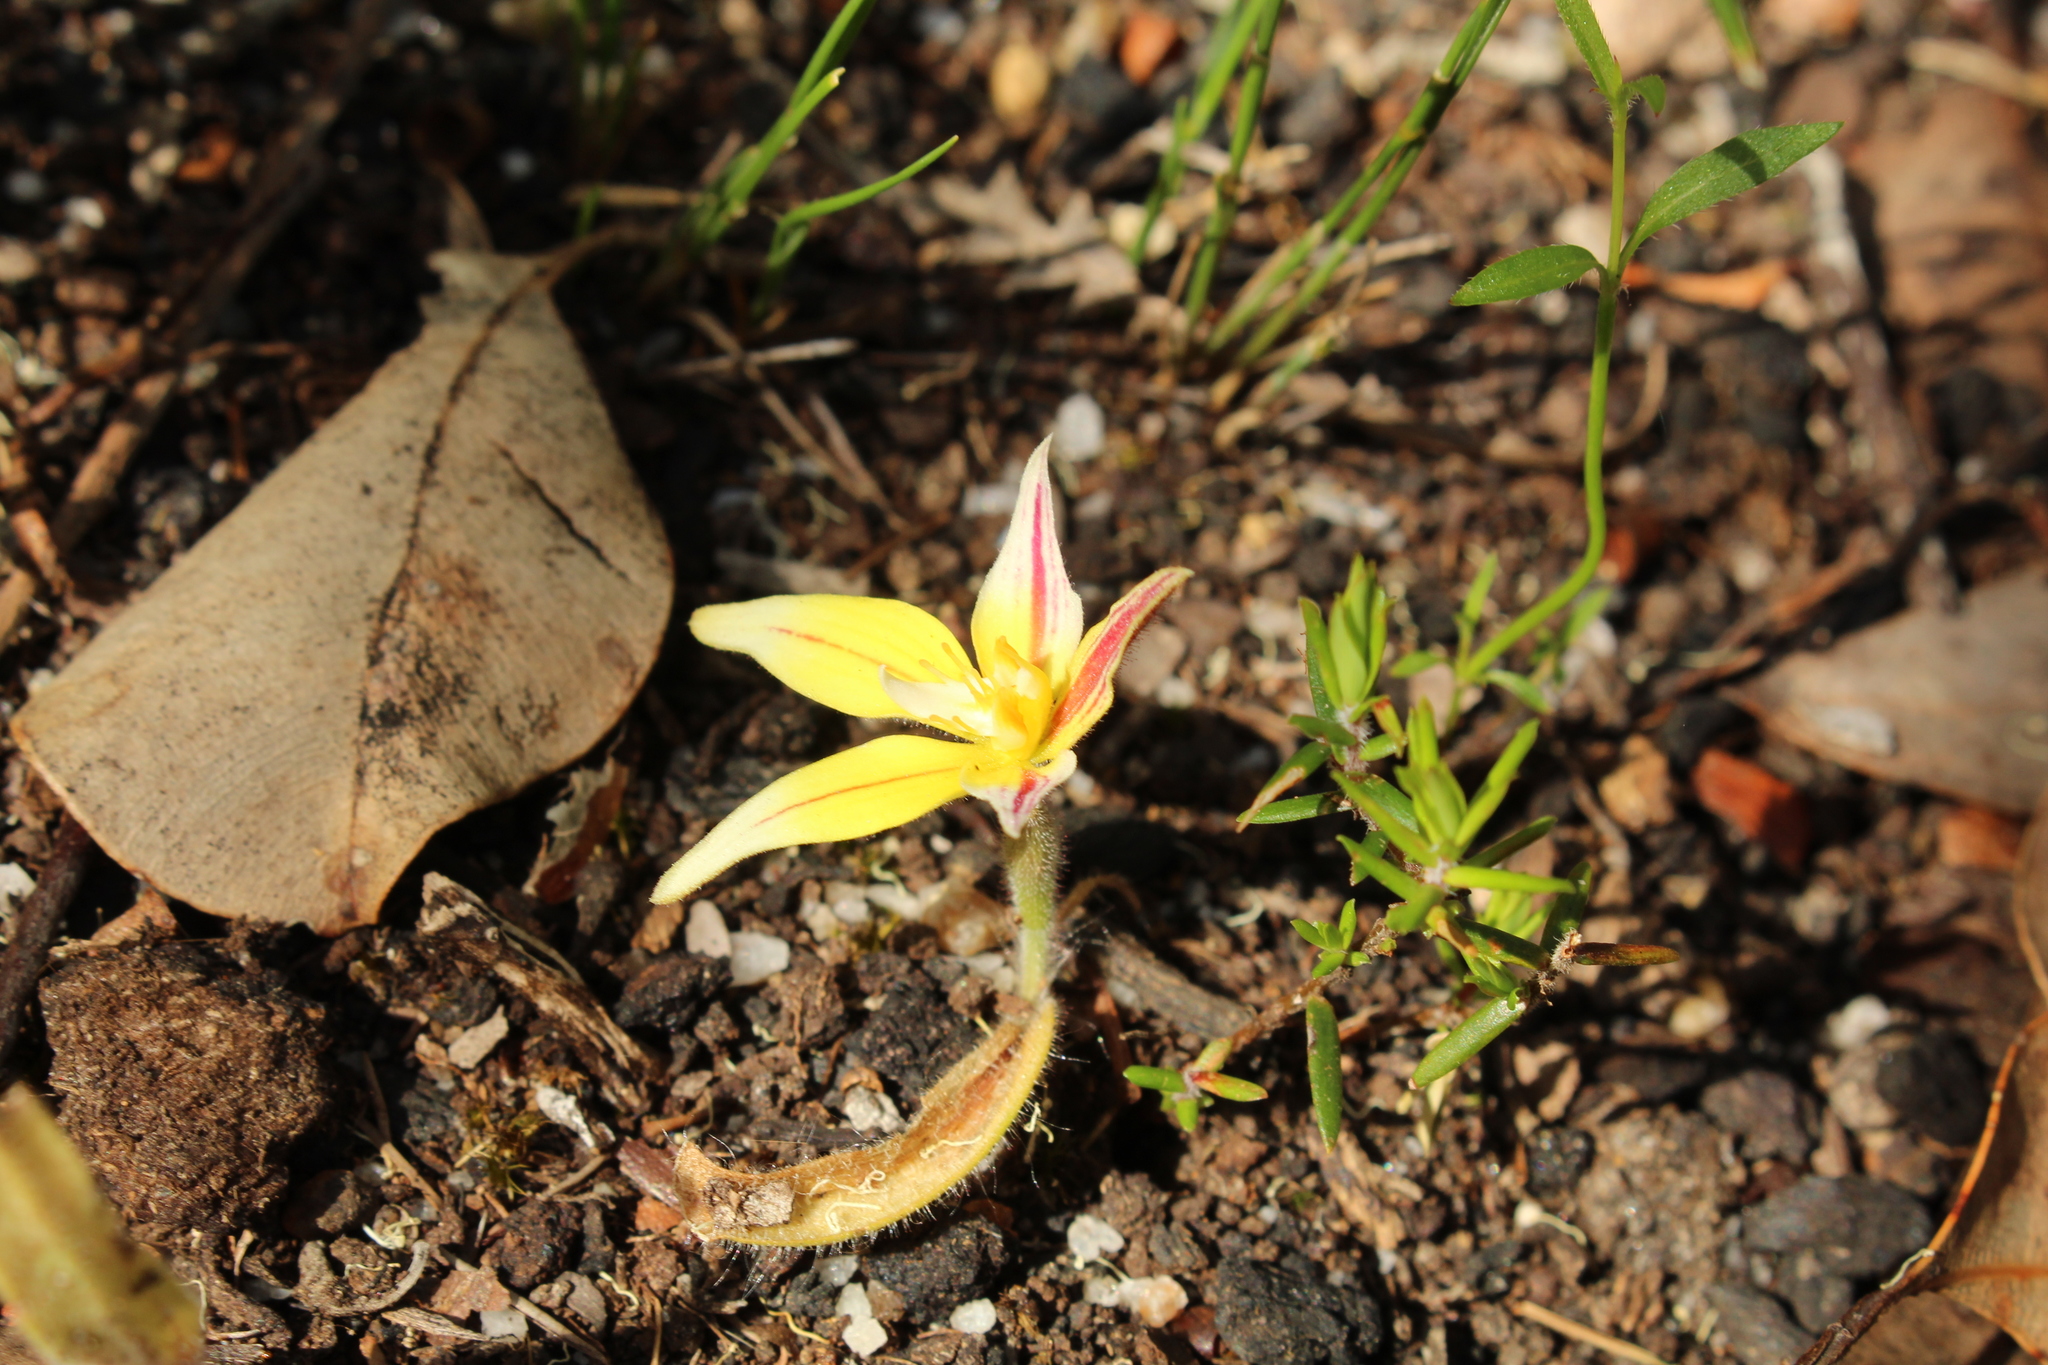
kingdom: Plantae
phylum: Tracheophyta
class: Liliopsida
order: Asparagales
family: Orchidaceae
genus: Caladenia
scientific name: Caladenia flava
